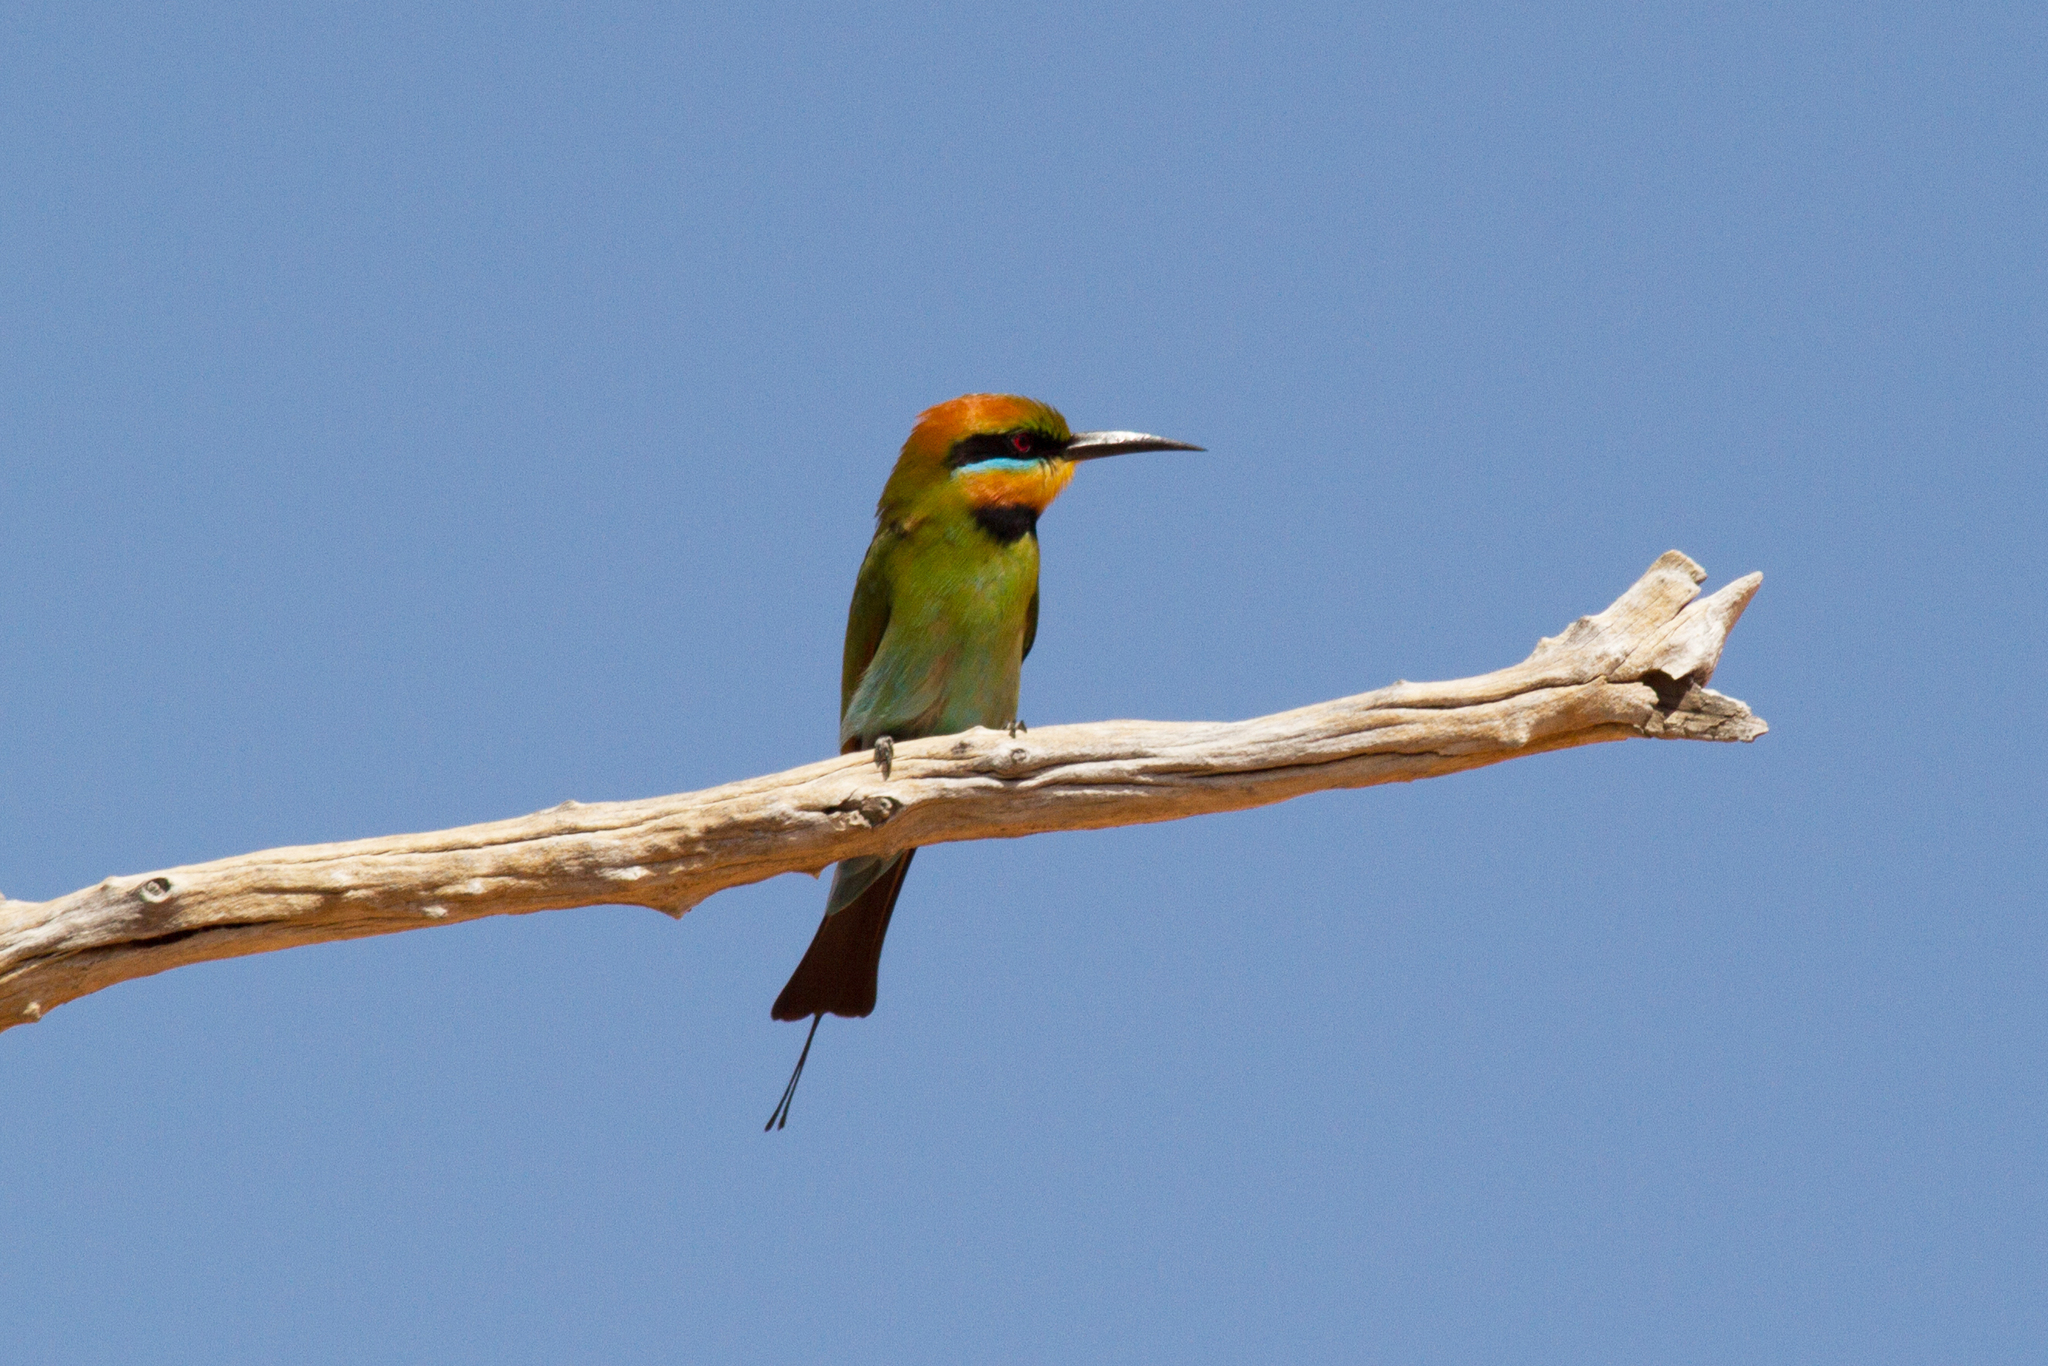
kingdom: Animalia
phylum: Chordata
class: Aves
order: Coraciiformes
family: Meropidae
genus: Merops
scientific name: Merops ornatus
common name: Rainbow bee-eater
